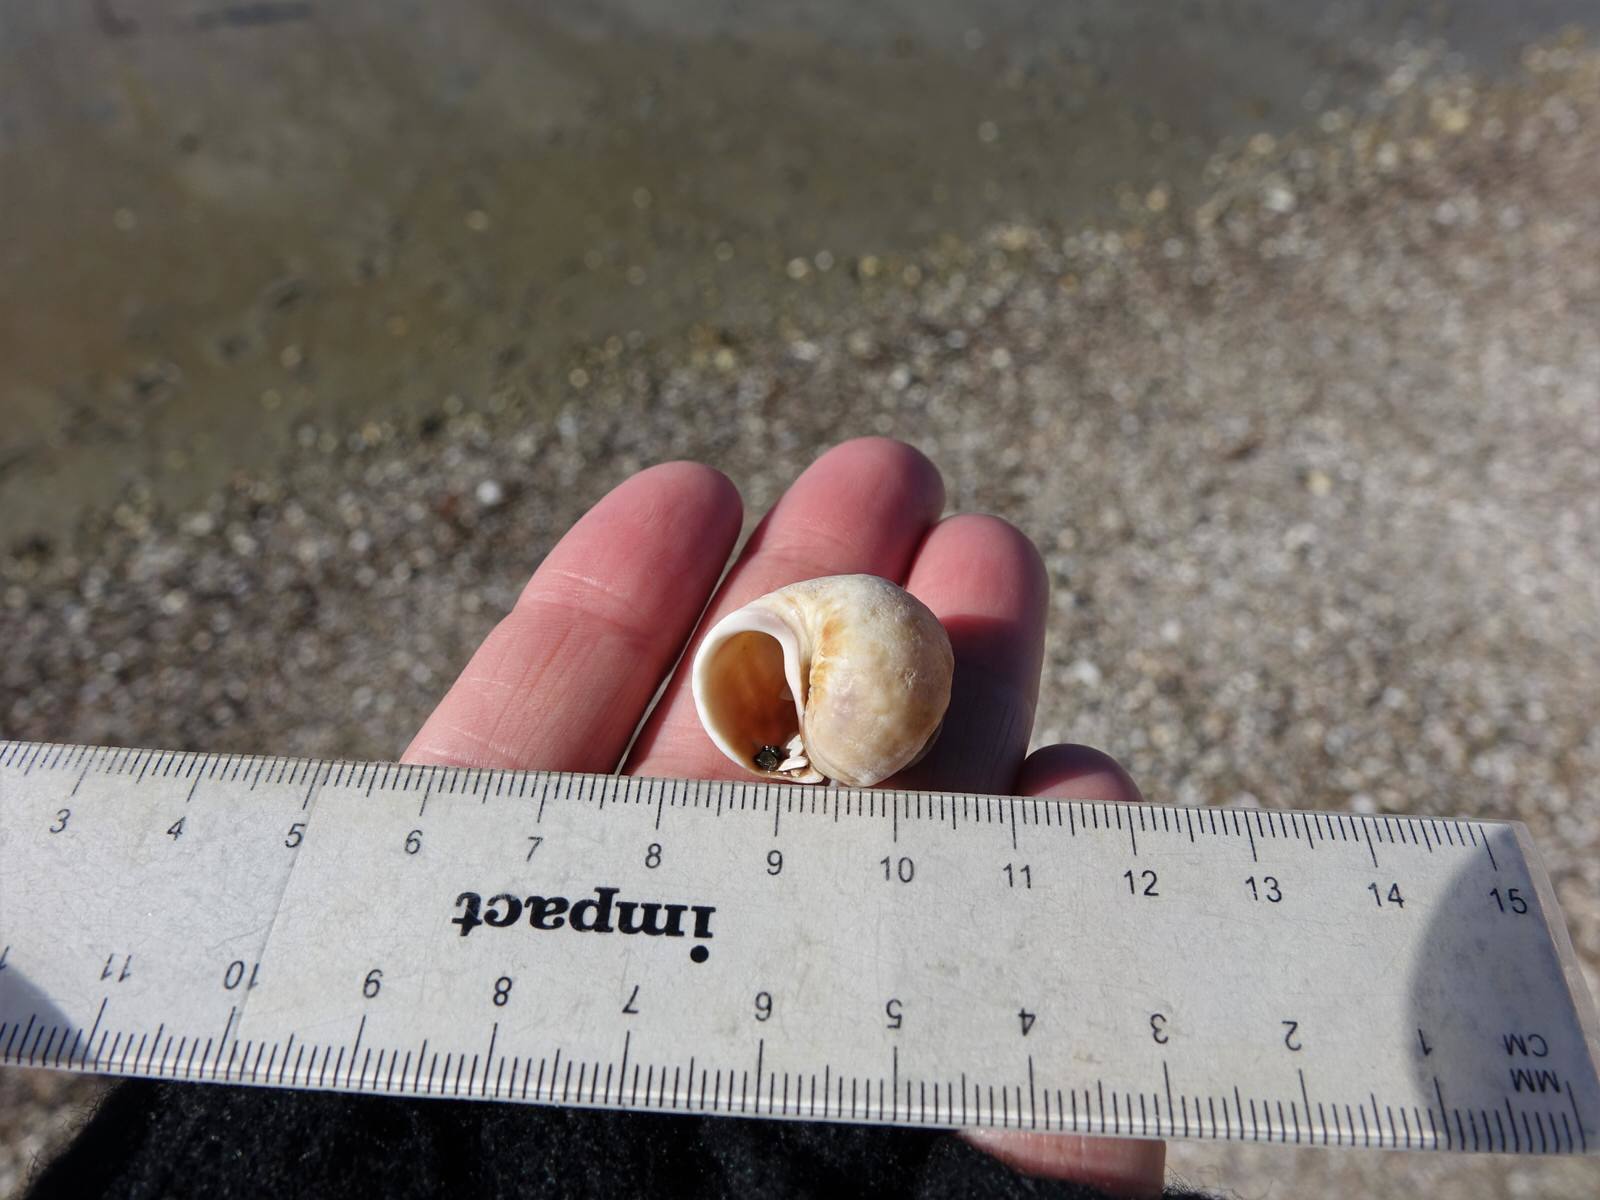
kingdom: Animalia
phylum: Mollusca
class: Gastropoda
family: Amphibolidae
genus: Amphibola
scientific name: Amphibola crenata
